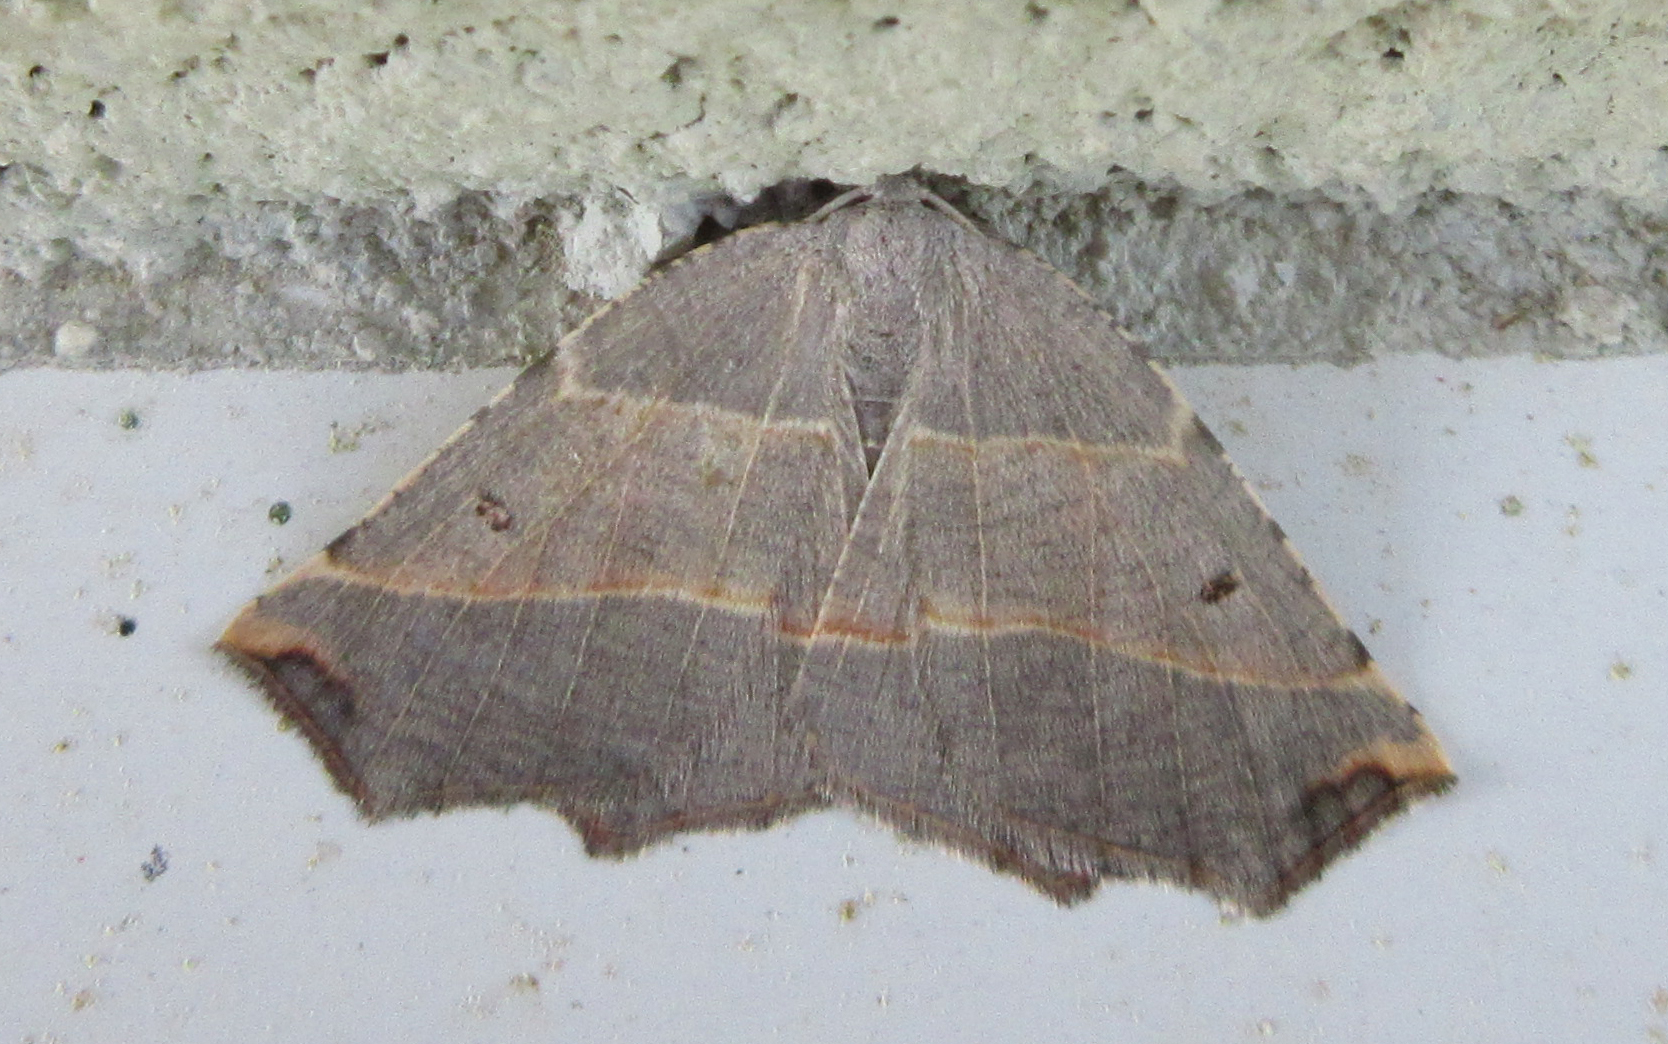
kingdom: Animalia
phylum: Arthropoda
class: Insecta
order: Lepidoptera
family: Geometridae
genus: Metanema
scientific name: Metanema inatomaria
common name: Pale metanema
